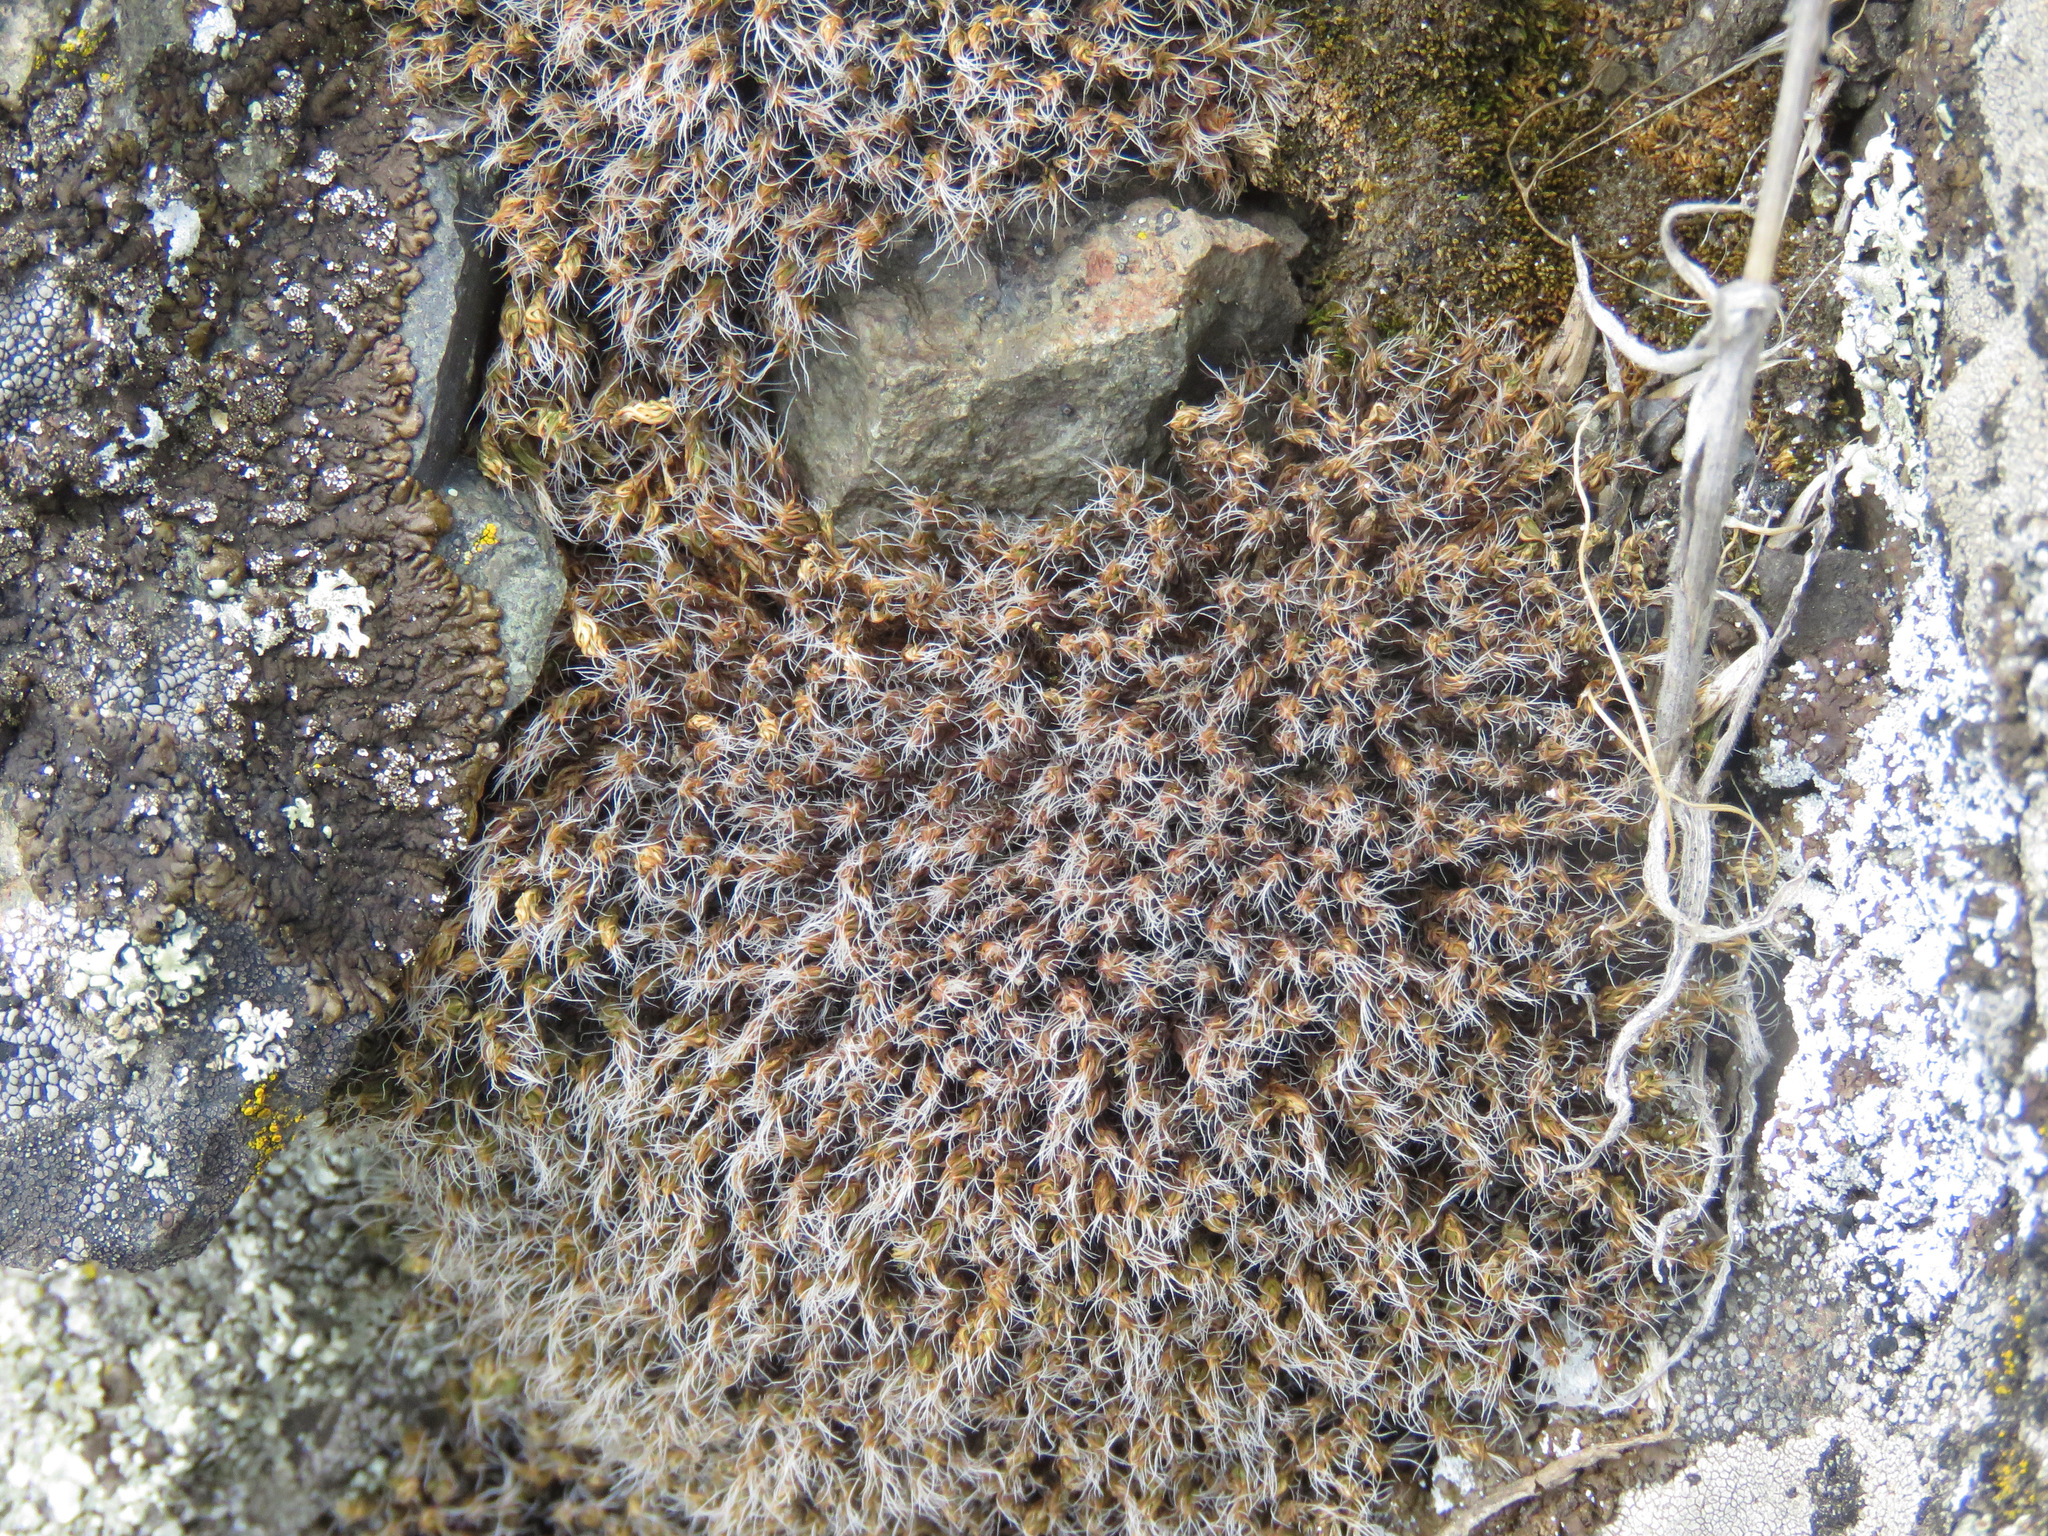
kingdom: Plantae
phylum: Bryophyta
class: Bryopsida
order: Grimmiales
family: Grimmiaceae
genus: Racomitrium
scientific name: Racomitrium lanuginosum
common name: Hoary rock moss
